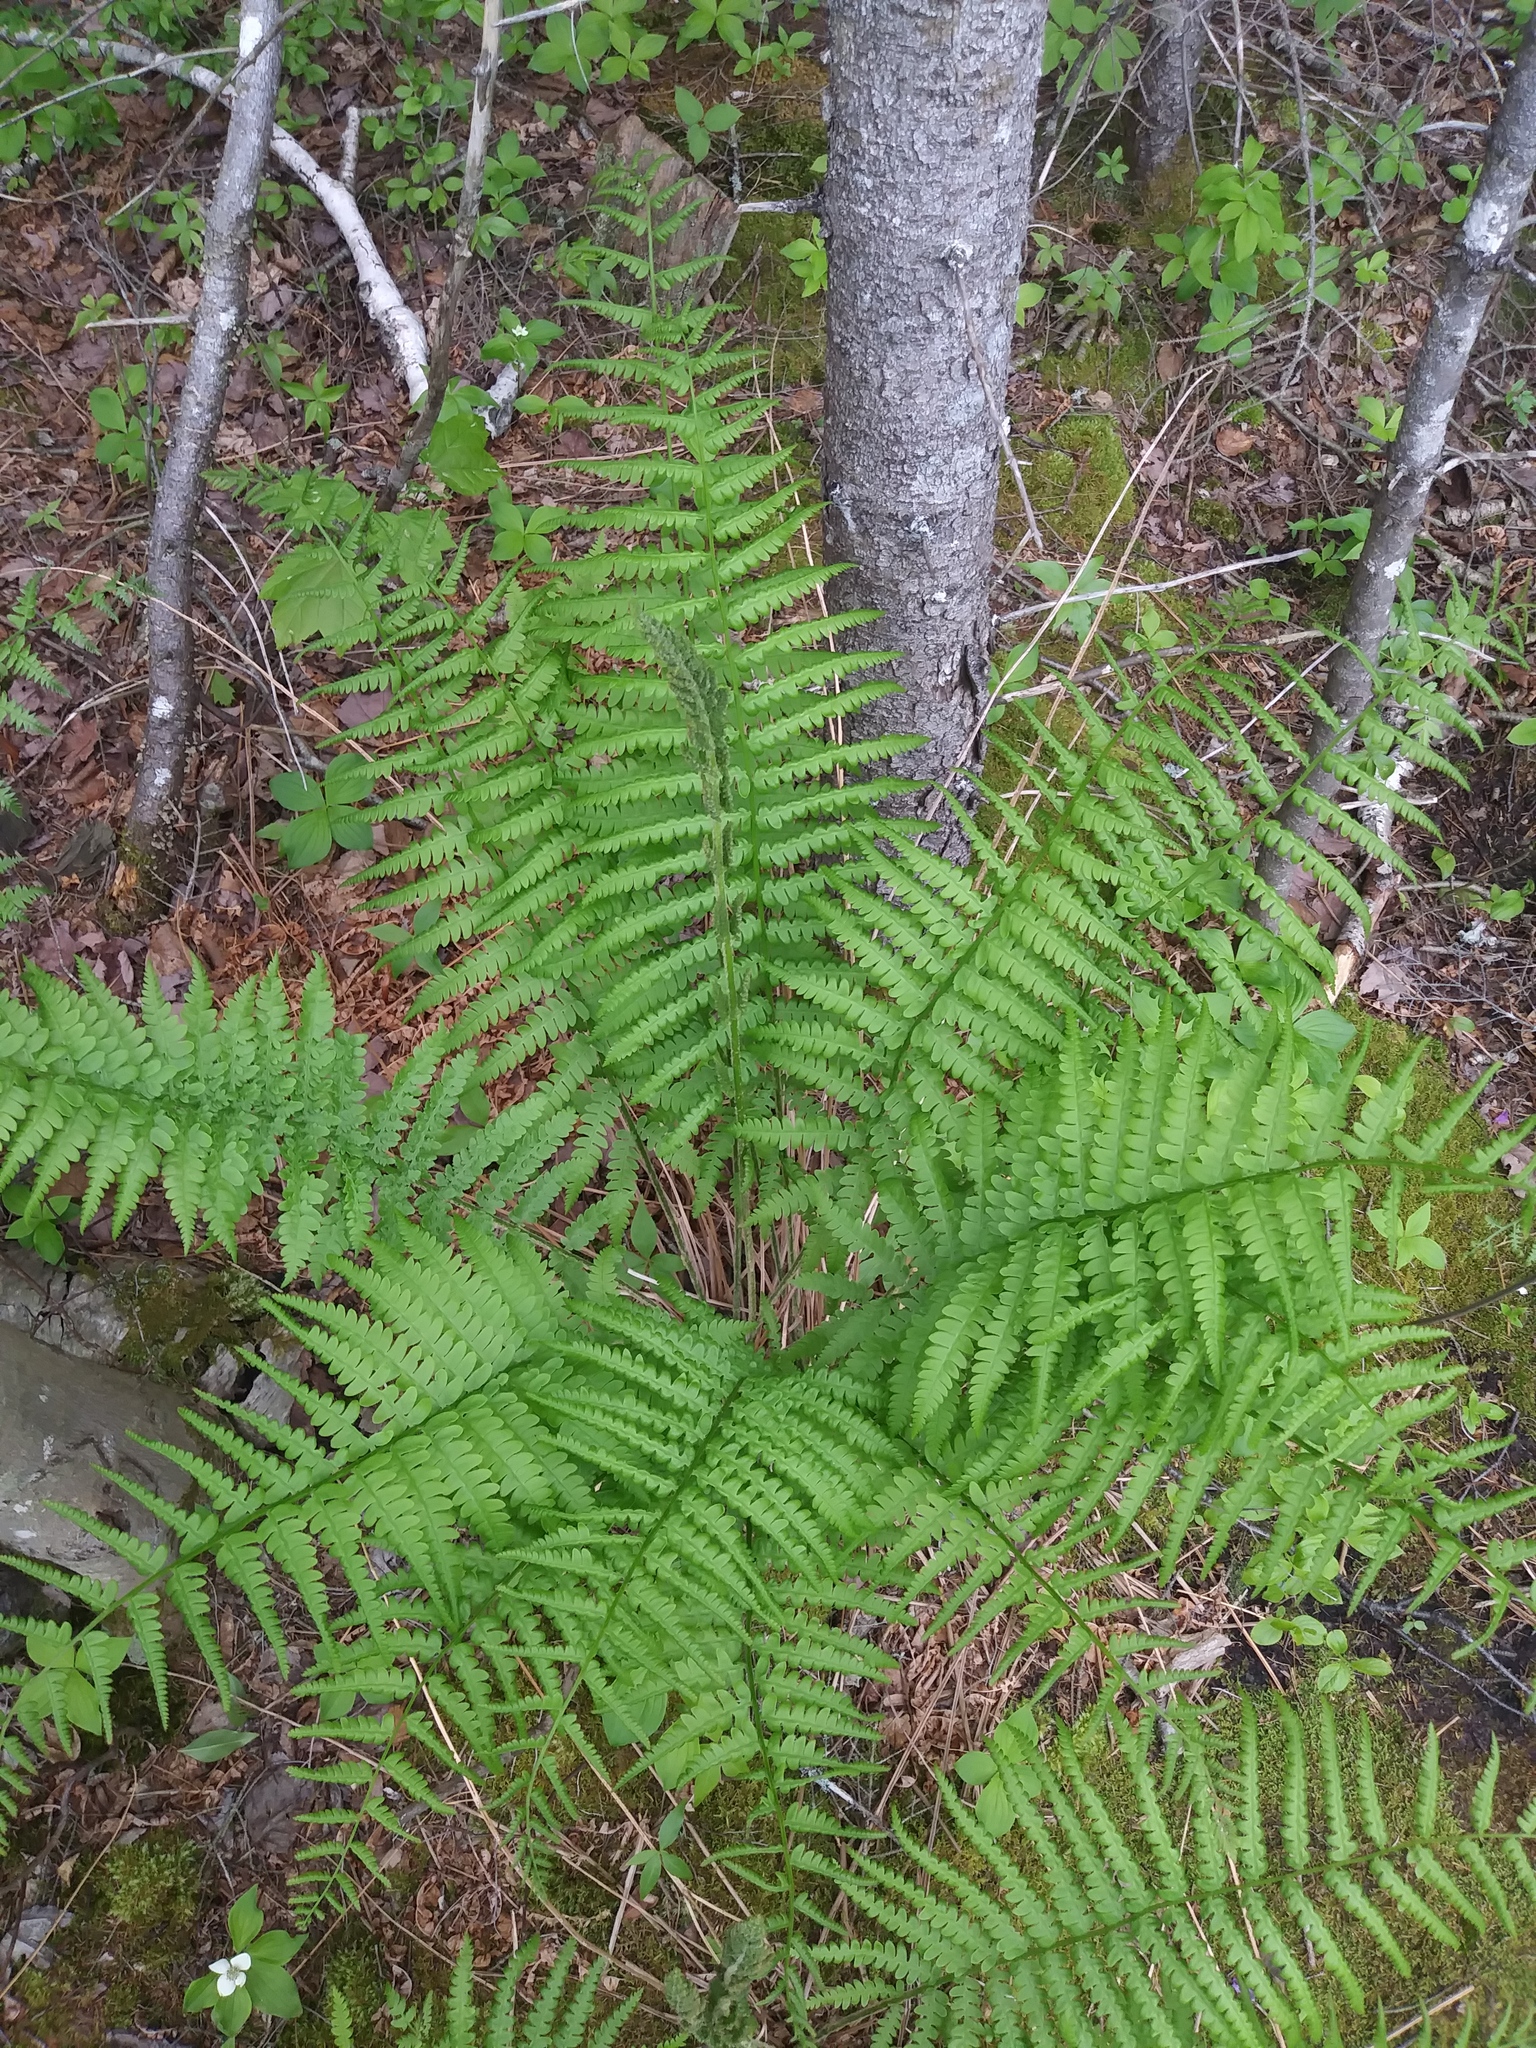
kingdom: Plantae
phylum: Tracheophyta
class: Polypodiopsida
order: Osmundales
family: Osmundaceae
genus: Osmundastrum
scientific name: Osmundastrum cinnamomeum
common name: Cinnamon fern
